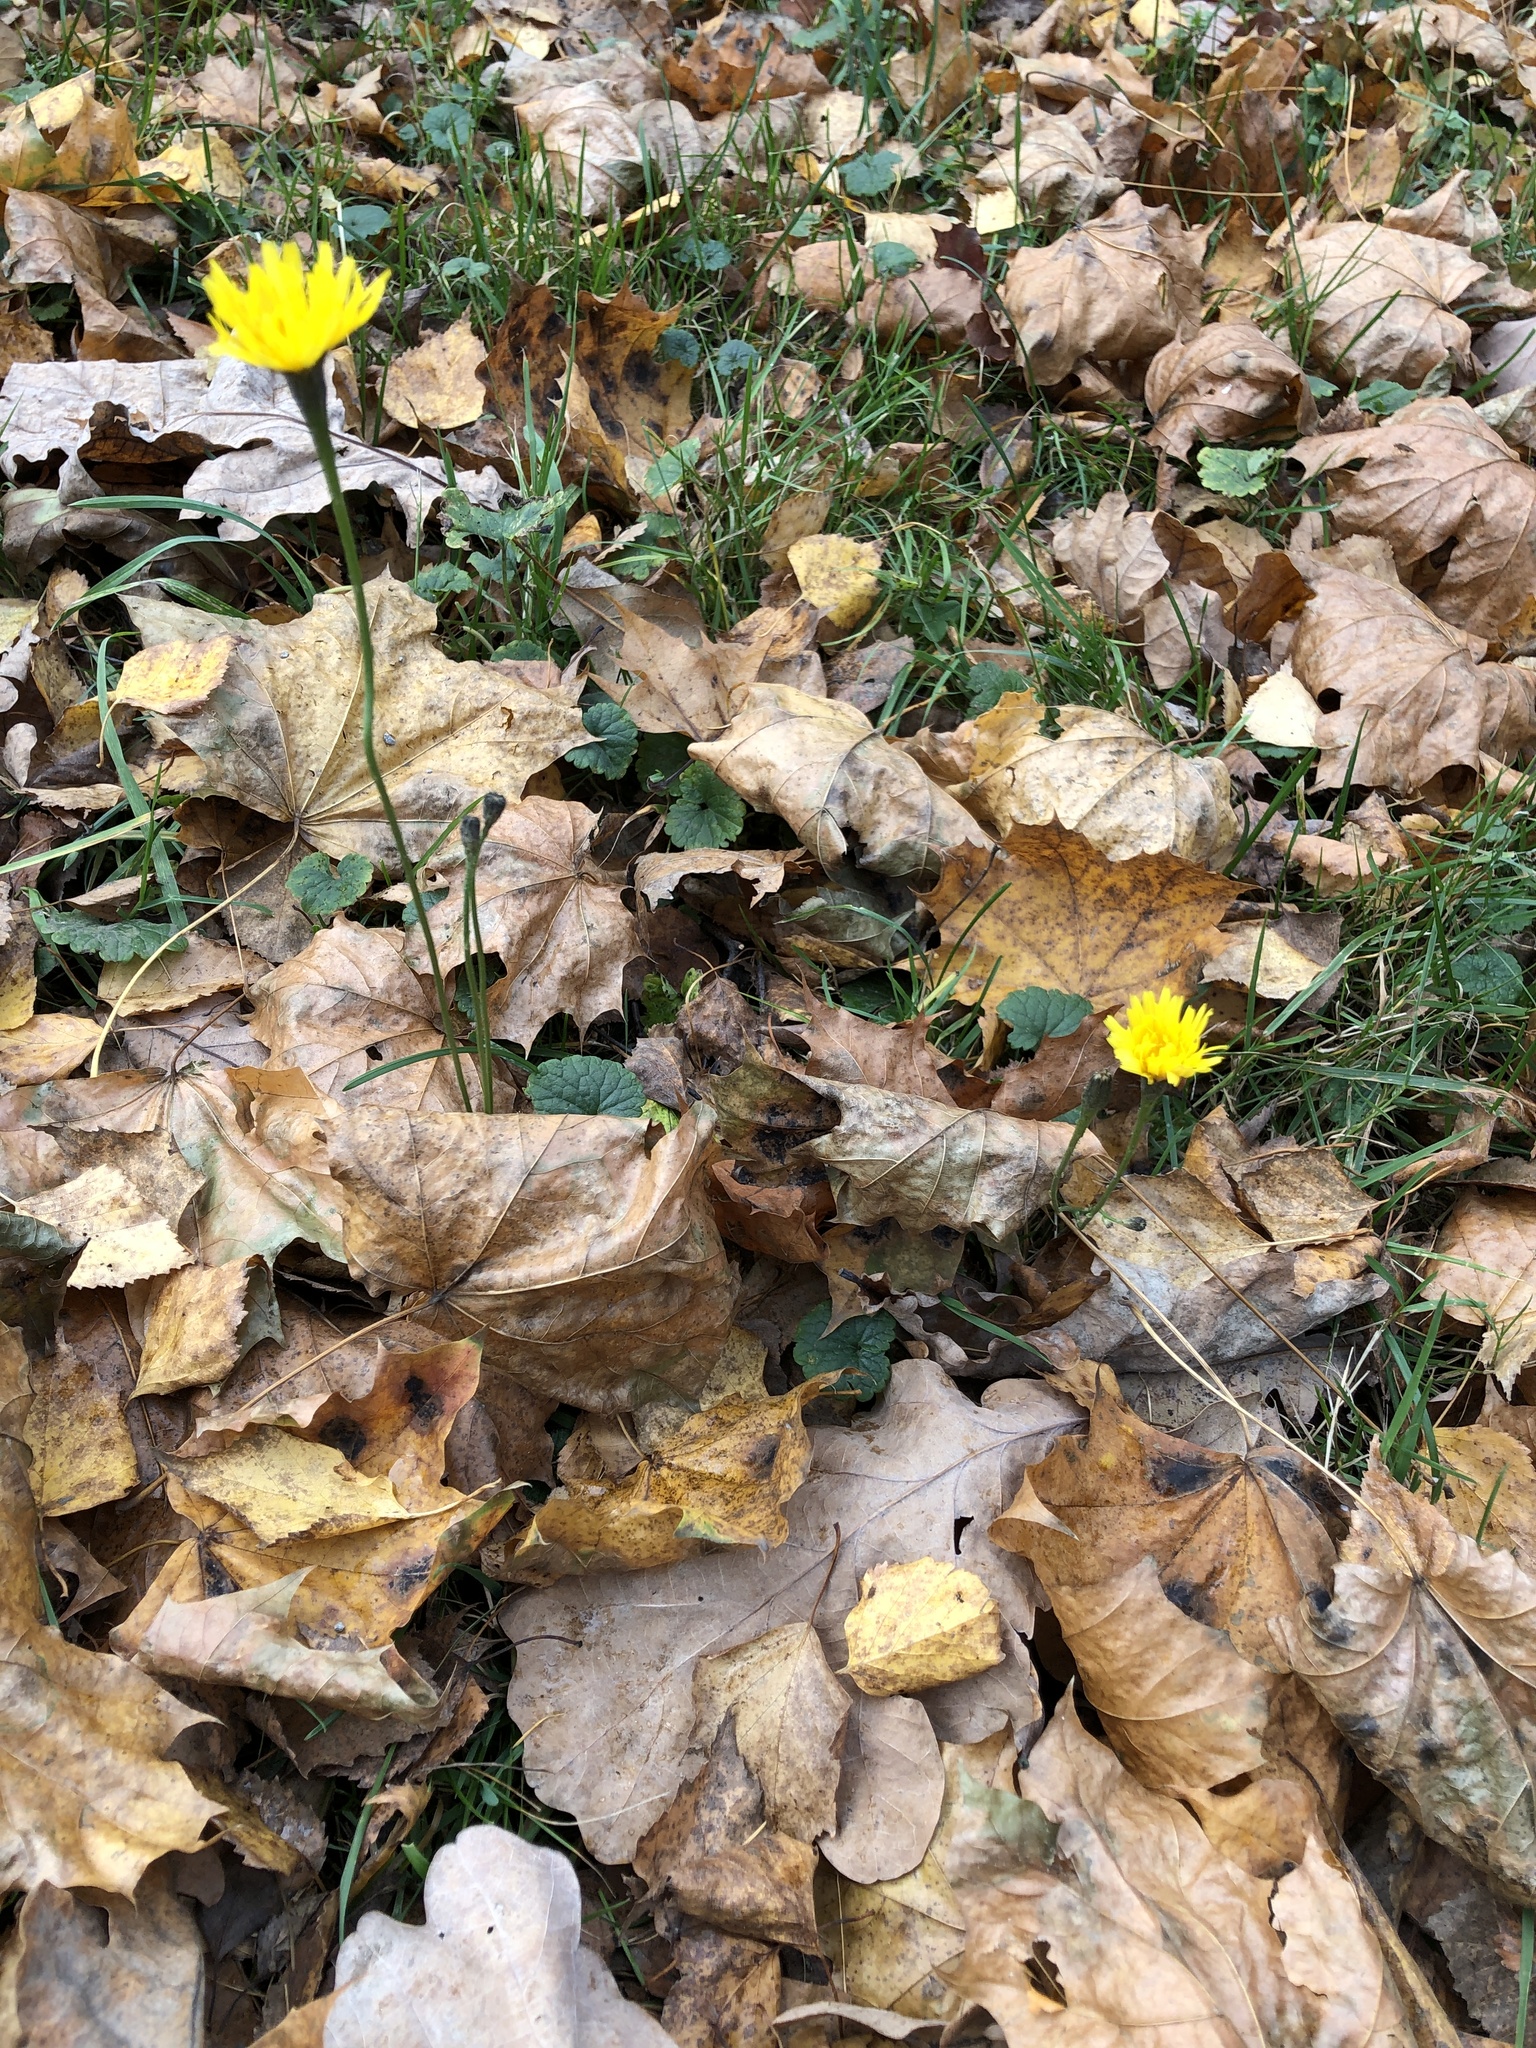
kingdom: Plantae
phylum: Tracheophyta
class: Magnoliopsida
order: Asterales
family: Asteraceae
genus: Scorzoneroides
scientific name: Scorzoneroides autumnalis
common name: Autumn hawkbit
